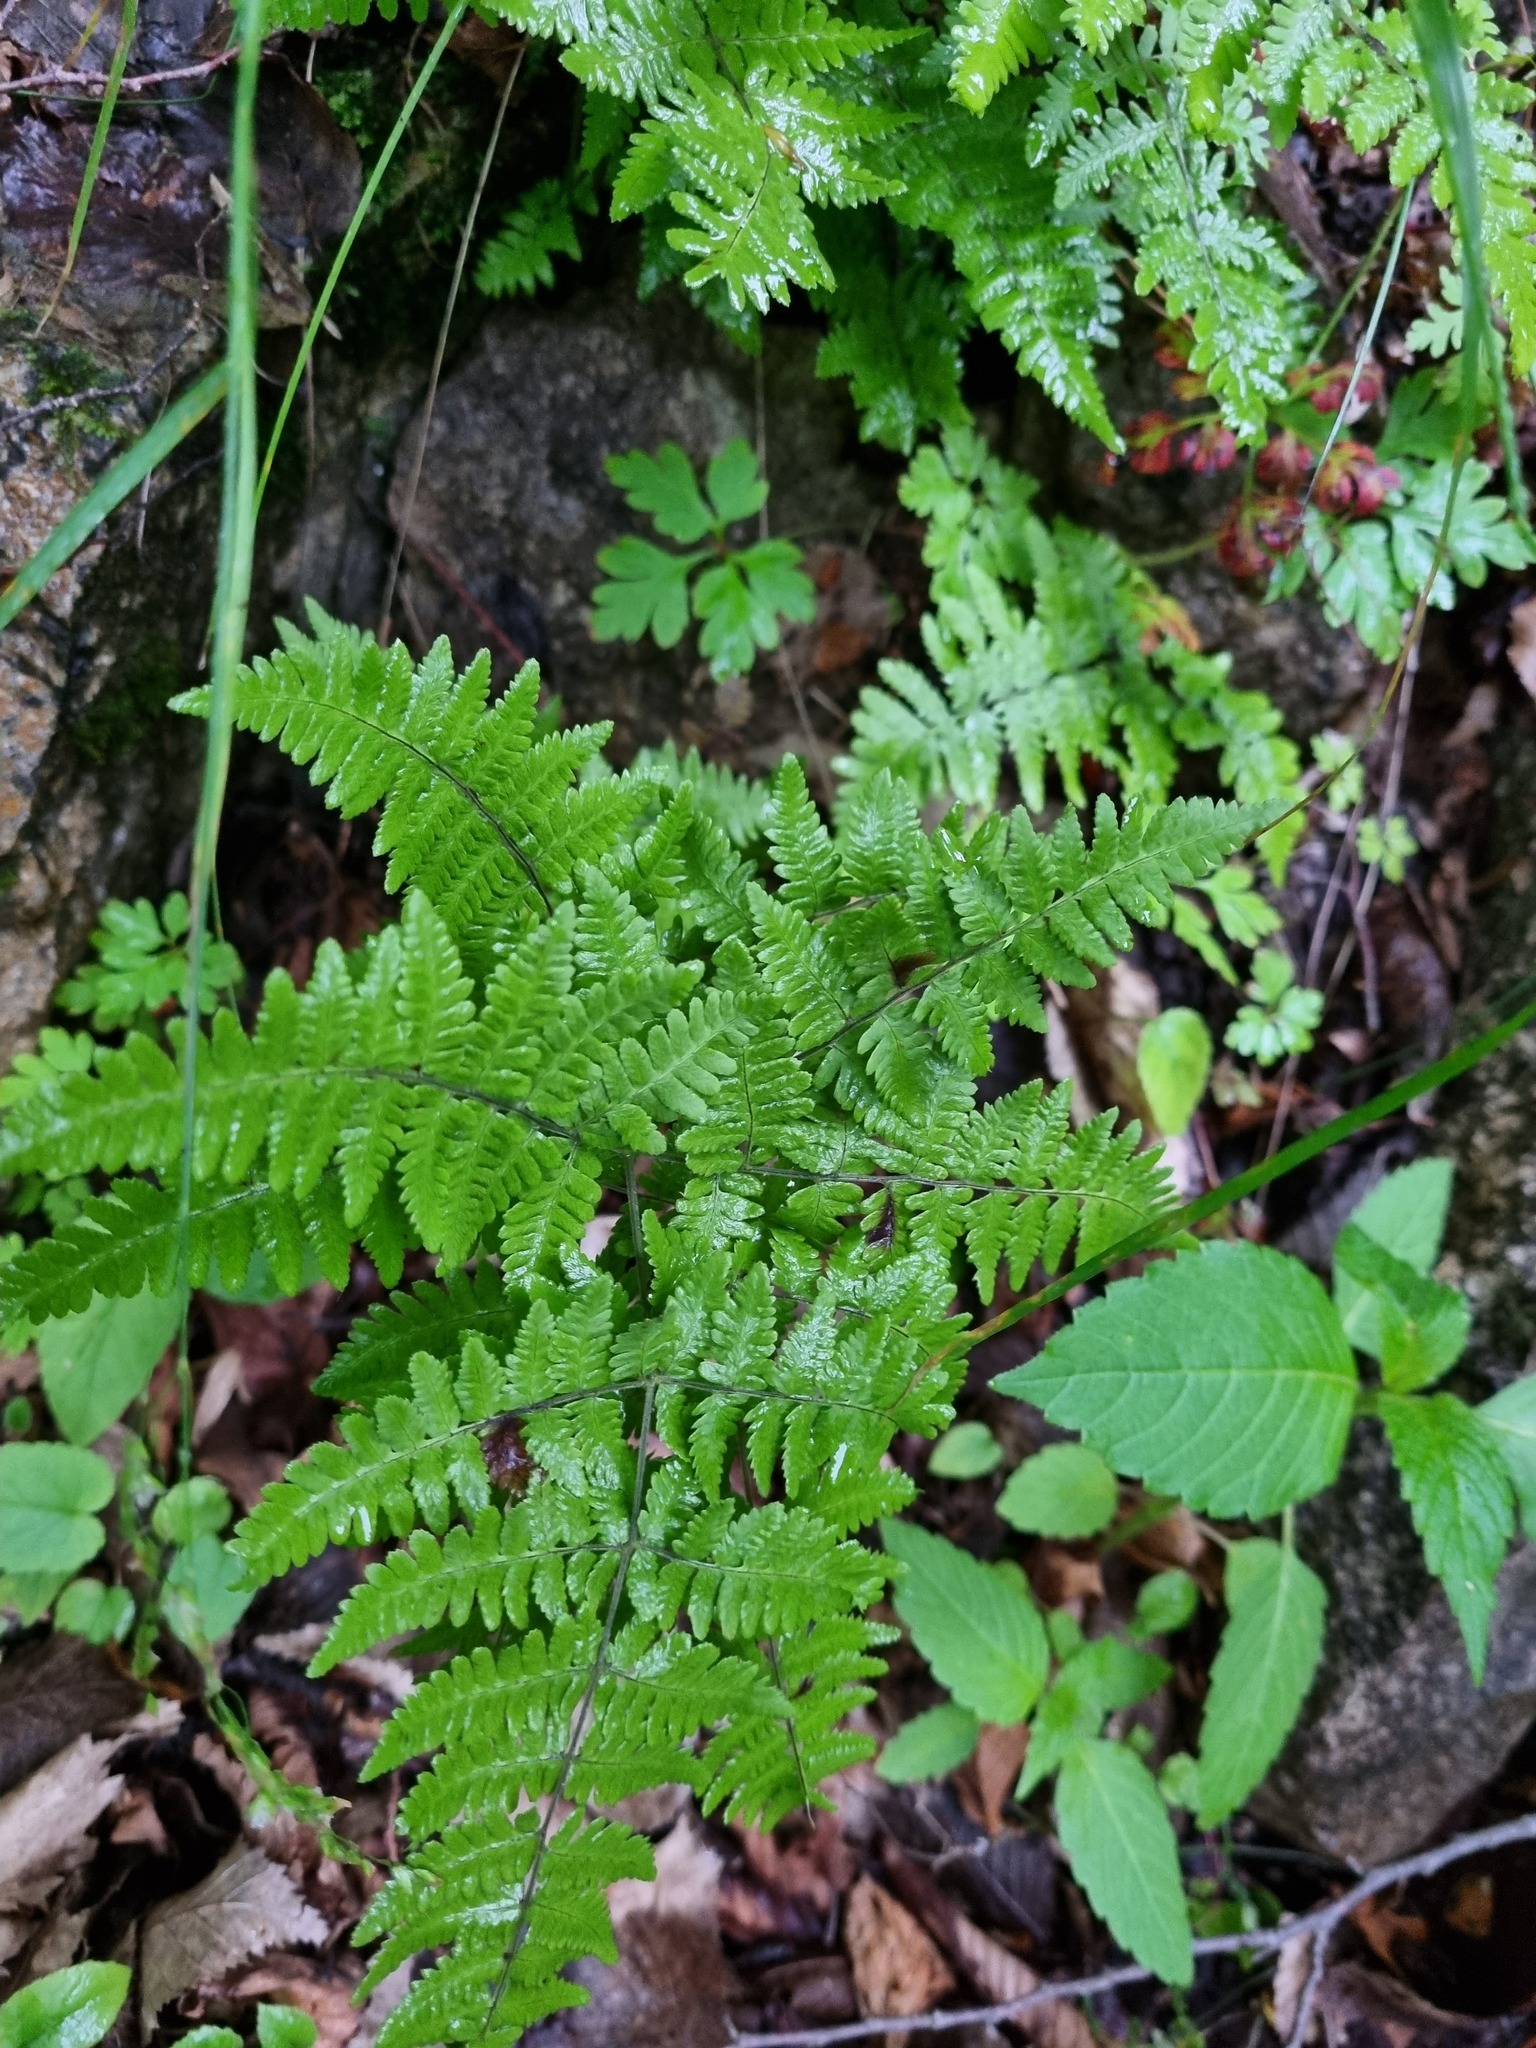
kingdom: Plantae
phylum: Tracheophyta
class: Polypodiopsida
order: Polypodiales
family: Cystopteridaceae
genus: Gymnocarpium
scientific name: Gymnocarpium robertianum
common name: Limestone fern
